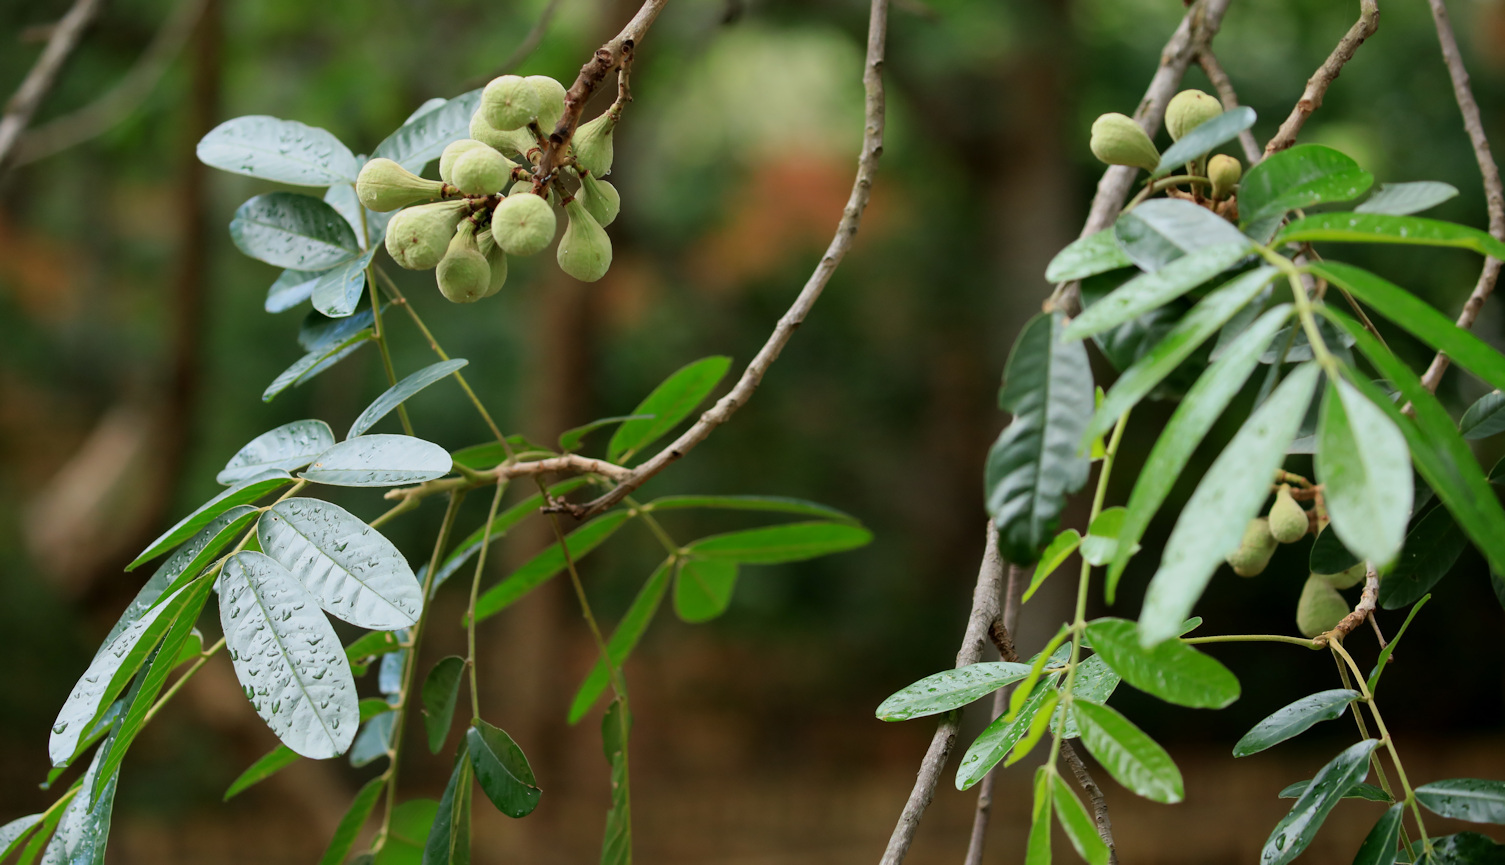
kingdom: Plantae
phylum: Tracheophyta
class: Magnoliopsida
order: Sapindales
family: Meliaceae
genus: Trichilia
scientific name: Trichilia emetica
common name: Christmas-bells
